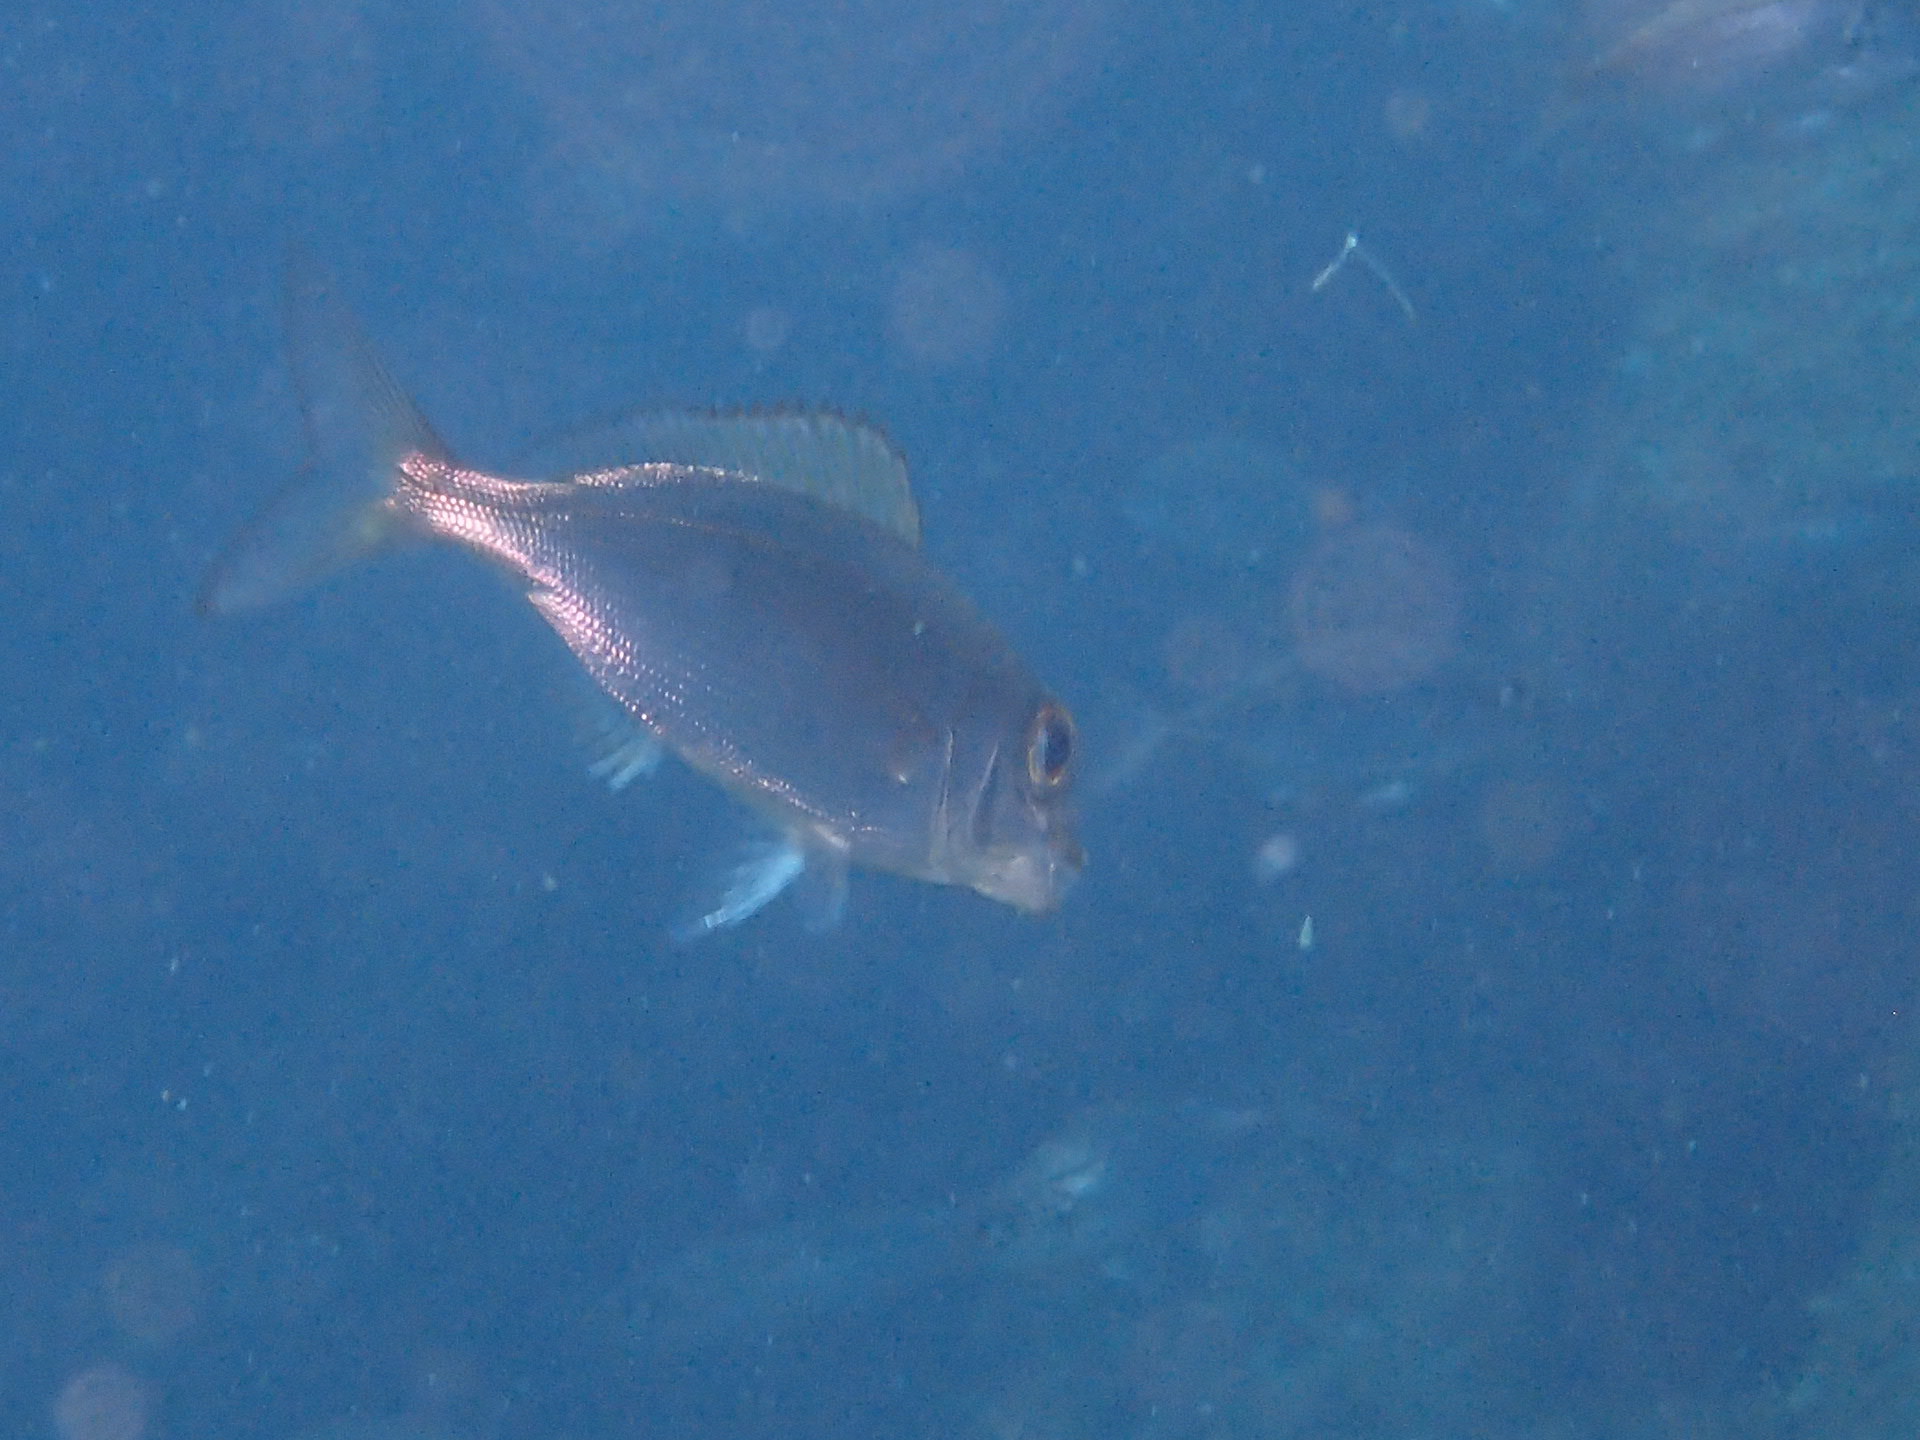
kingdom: Animalia
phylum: Chordata
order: Perciformes
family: Sparidae
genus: Pagellus
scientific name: Pagellus acarne
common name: Axillary sea-bream
